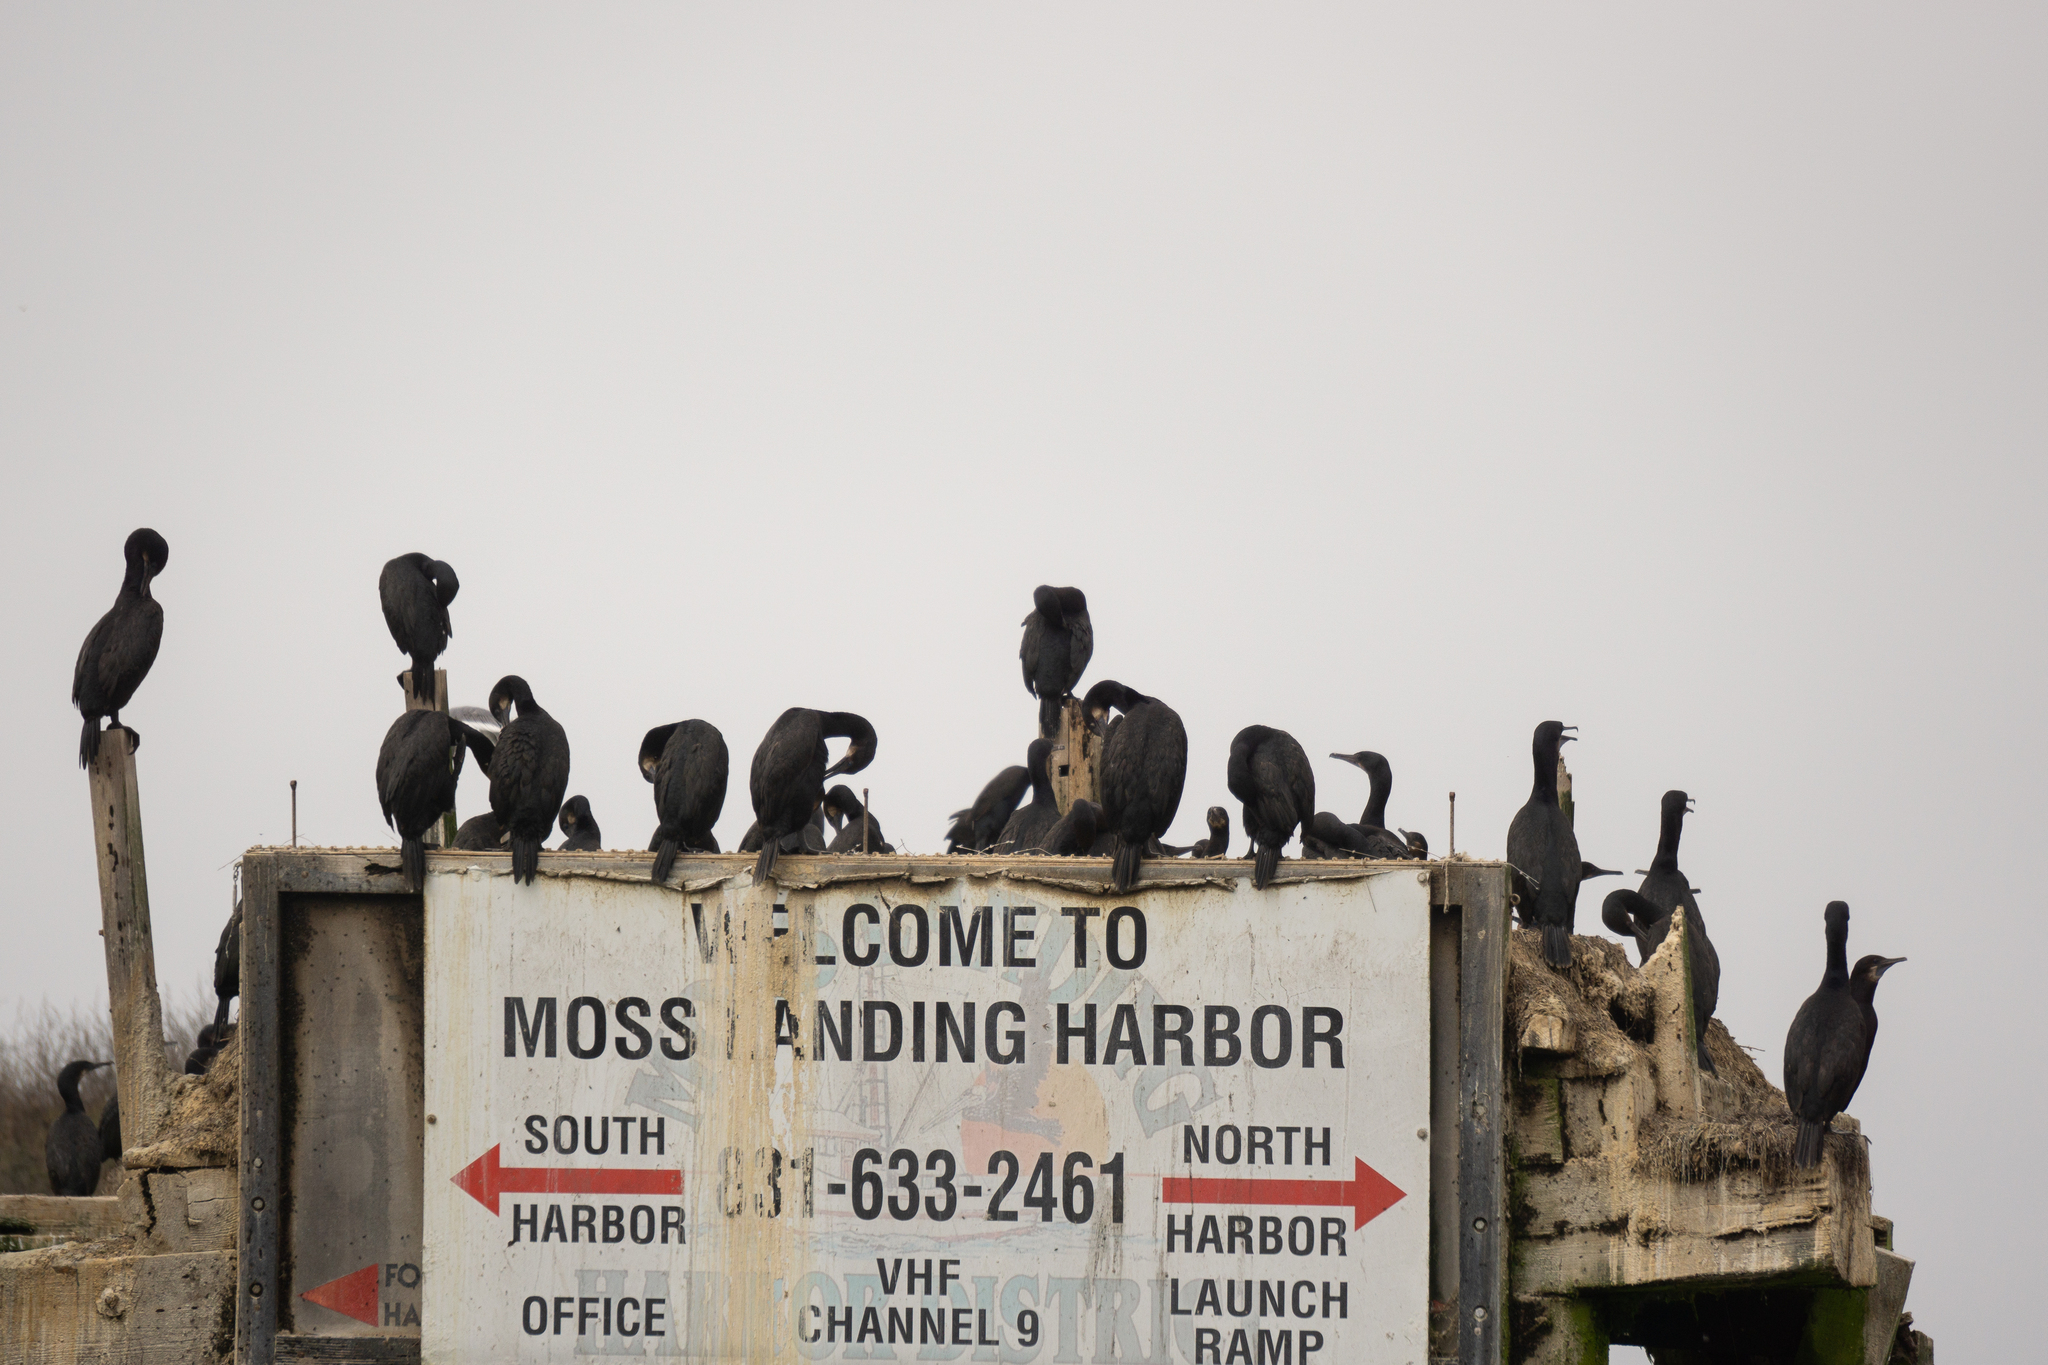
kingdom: Animalia
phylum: Chordata
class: Aves
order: Suliformes
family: Phalacrocoracidae
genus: Urile
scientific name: Urile penicillatus
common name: Brandt's cormorant
